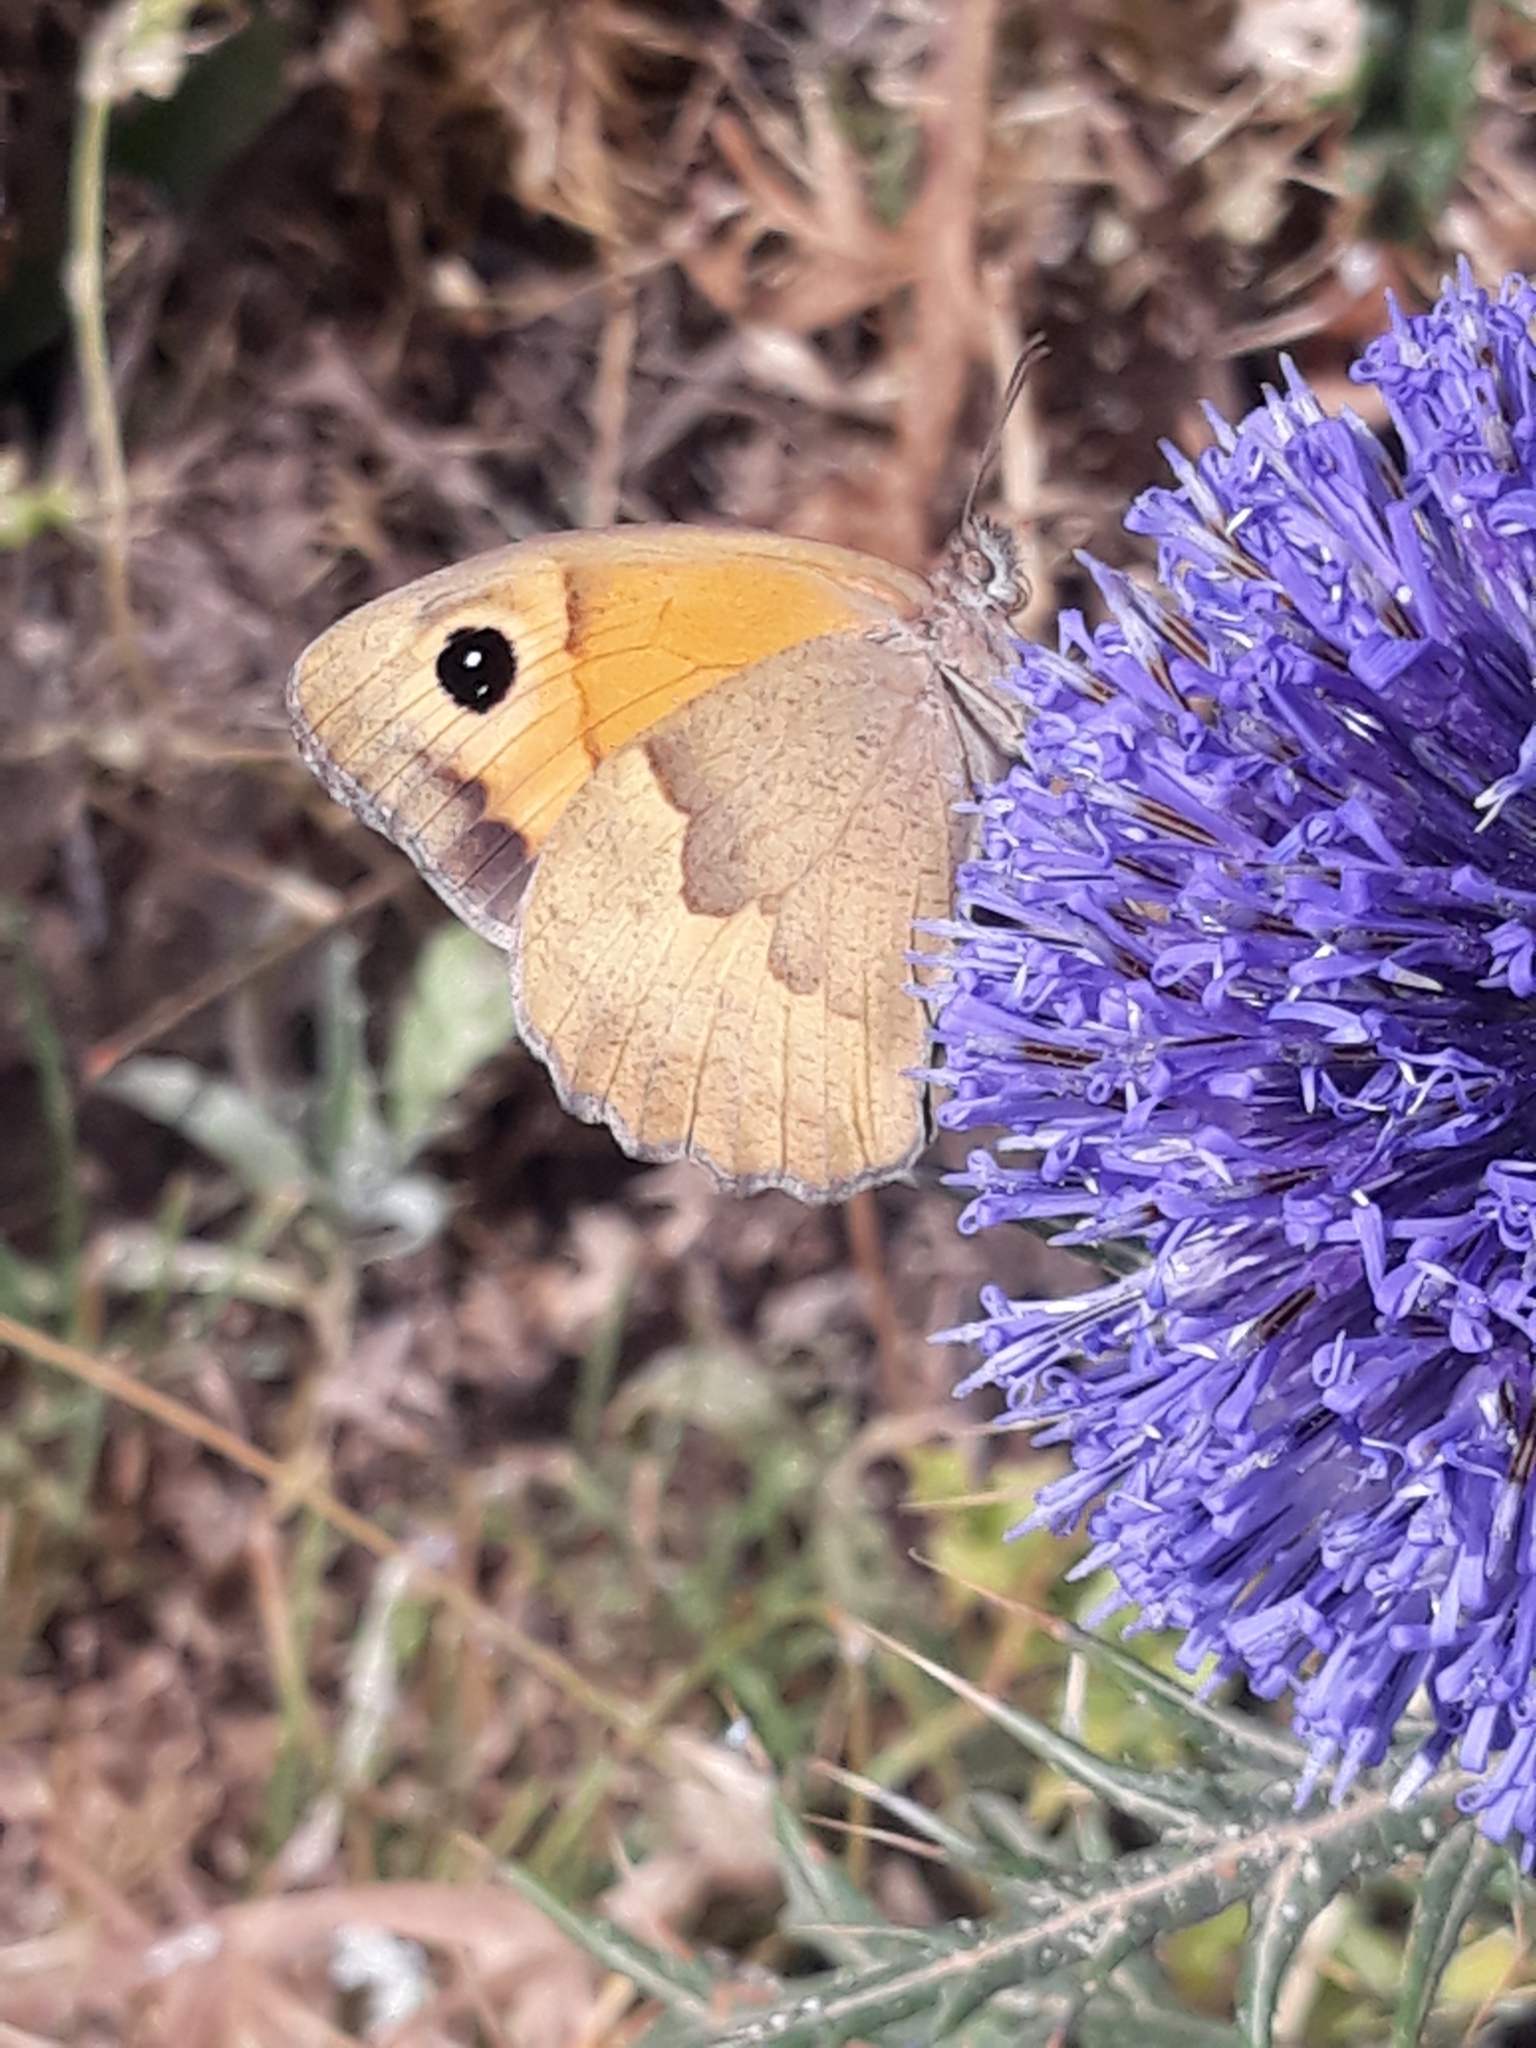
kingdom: Animalia
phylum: Arthropoda
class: Insecta
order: Lepidoptera
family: Nymphalidae
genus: Maniola
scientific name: Maniola jurtina
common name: Meadow brown
